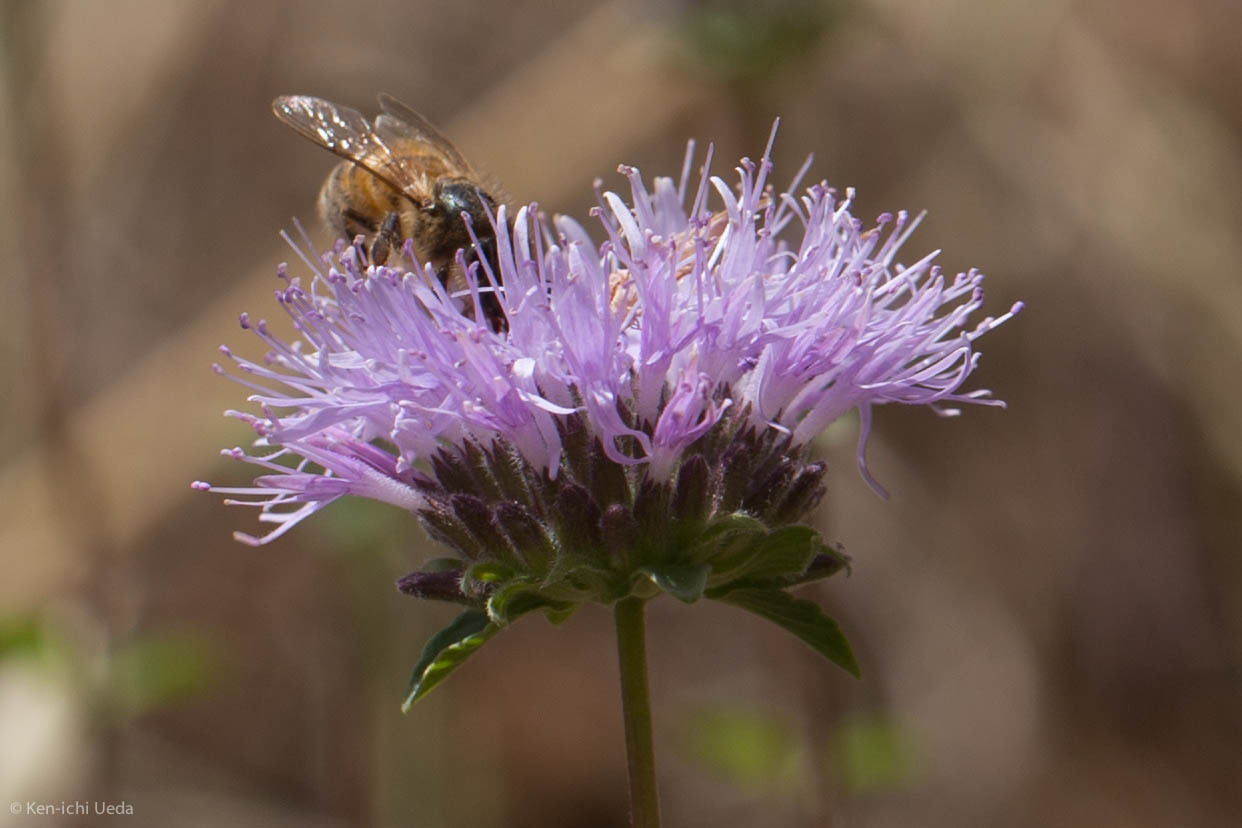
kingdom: Plantae
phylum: Tracheophyta
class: Magnoliopsida
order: Lamiales
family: Lamiaceae
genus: Monardella
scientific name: Monardella odoratissima
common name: Pacific monardella
